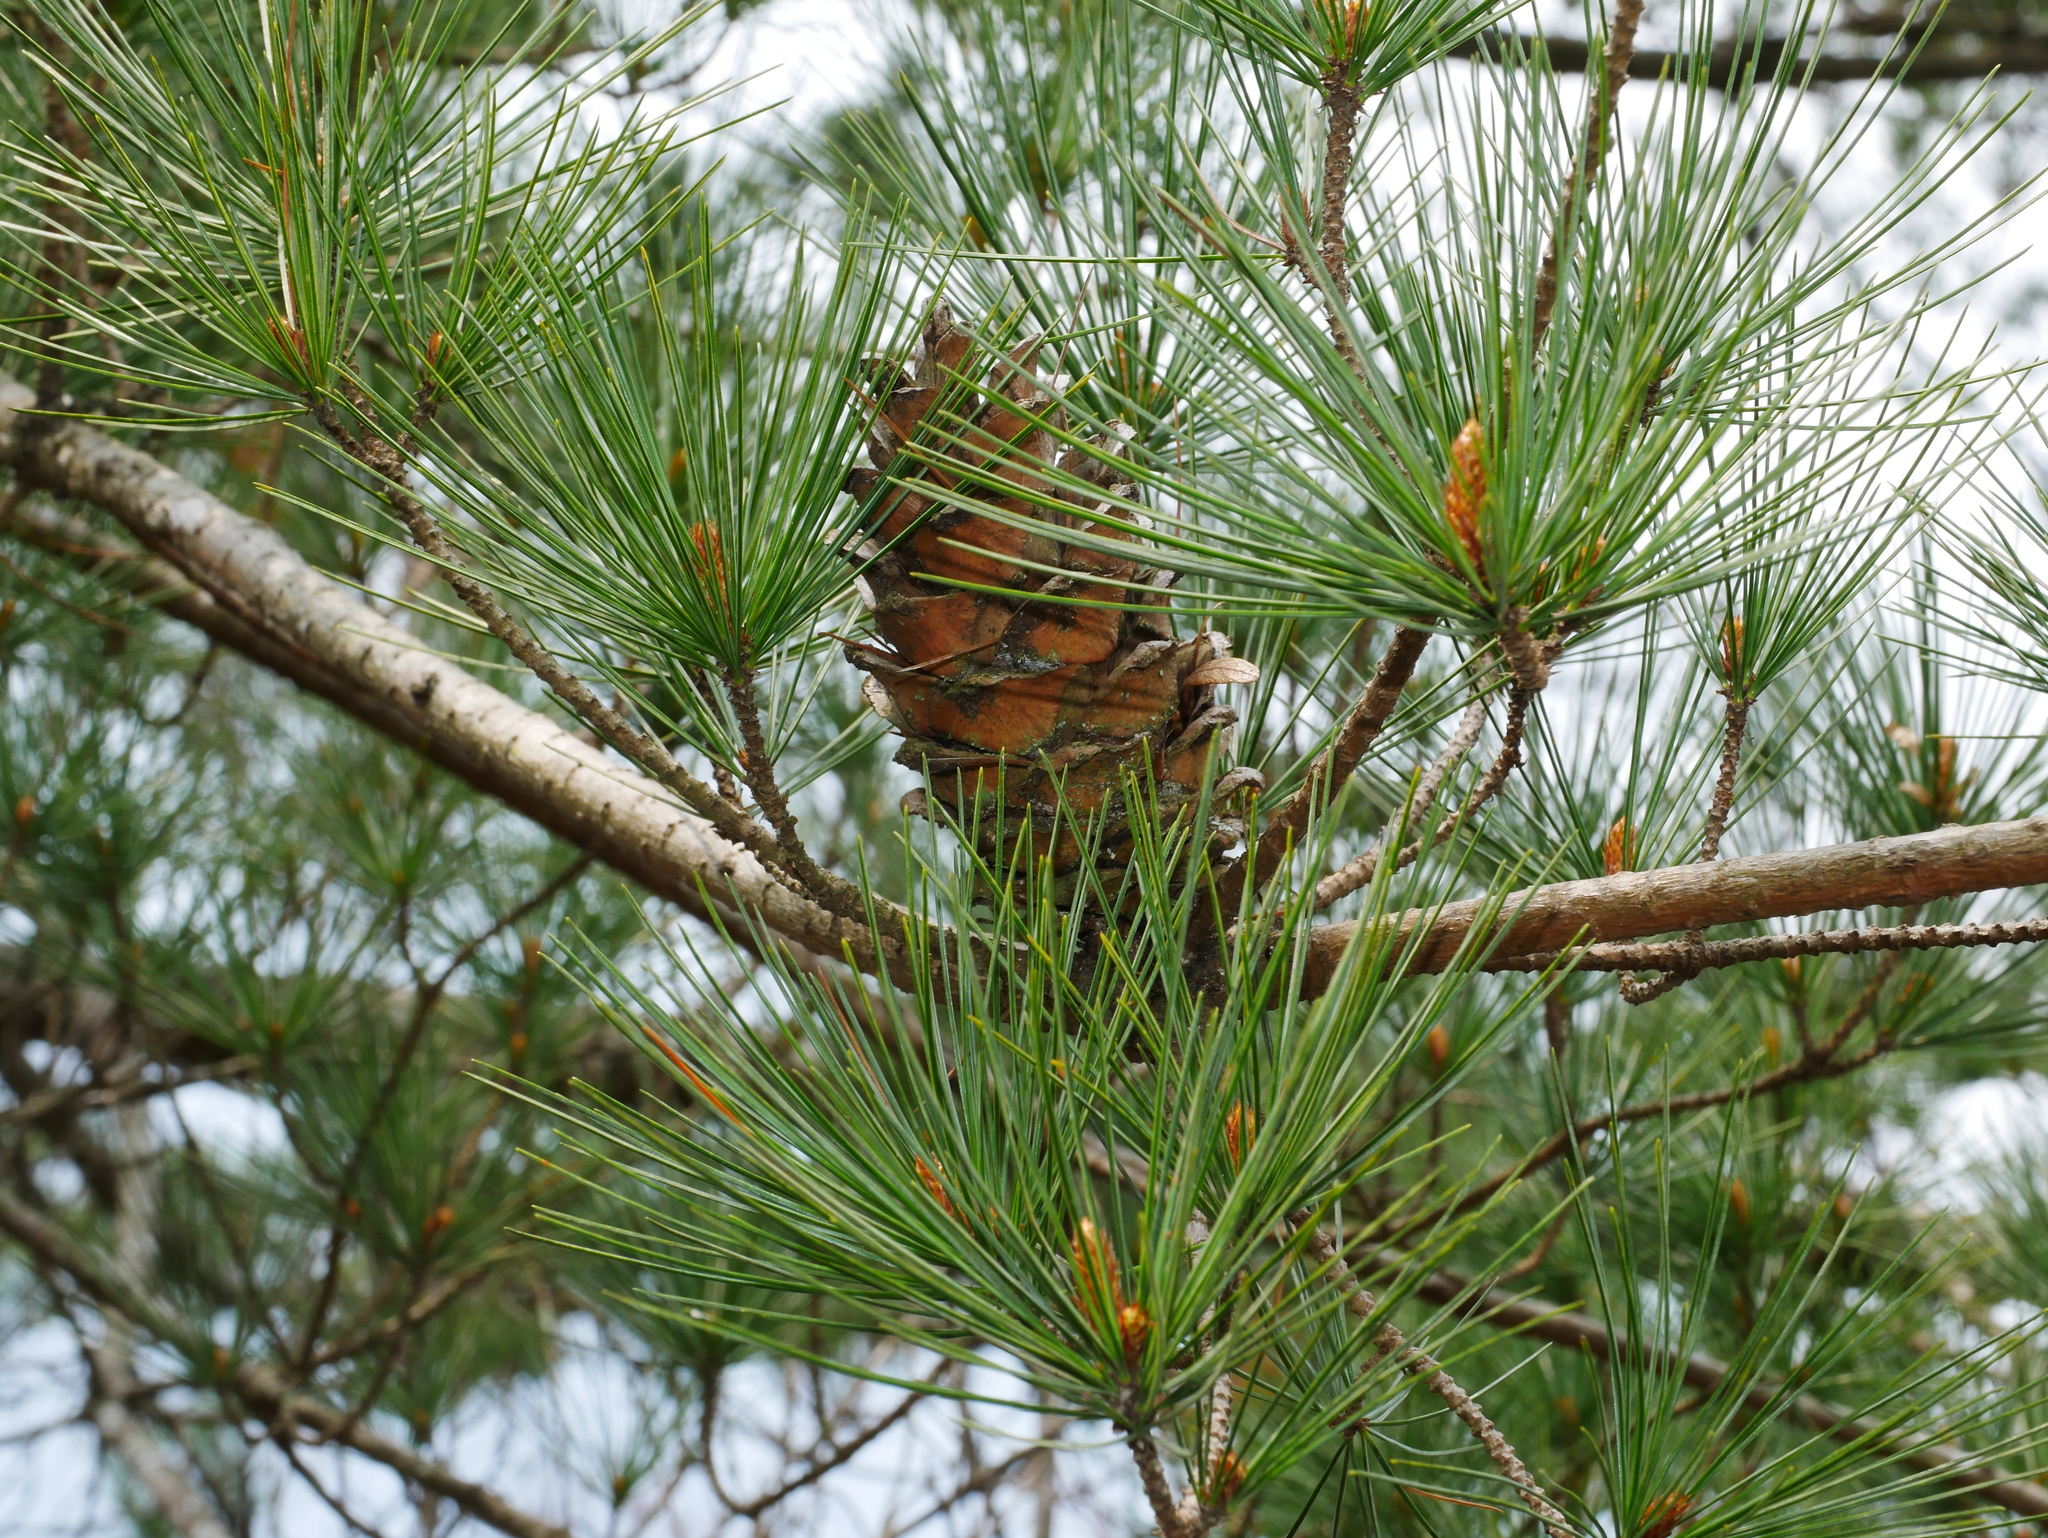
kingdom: Plantae
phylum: Tracheophyta
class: Pinopsida
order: Pinales
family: Pinaceae
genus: Pinus
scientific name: Pinus morrisonicola
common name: Taiwan white pine
